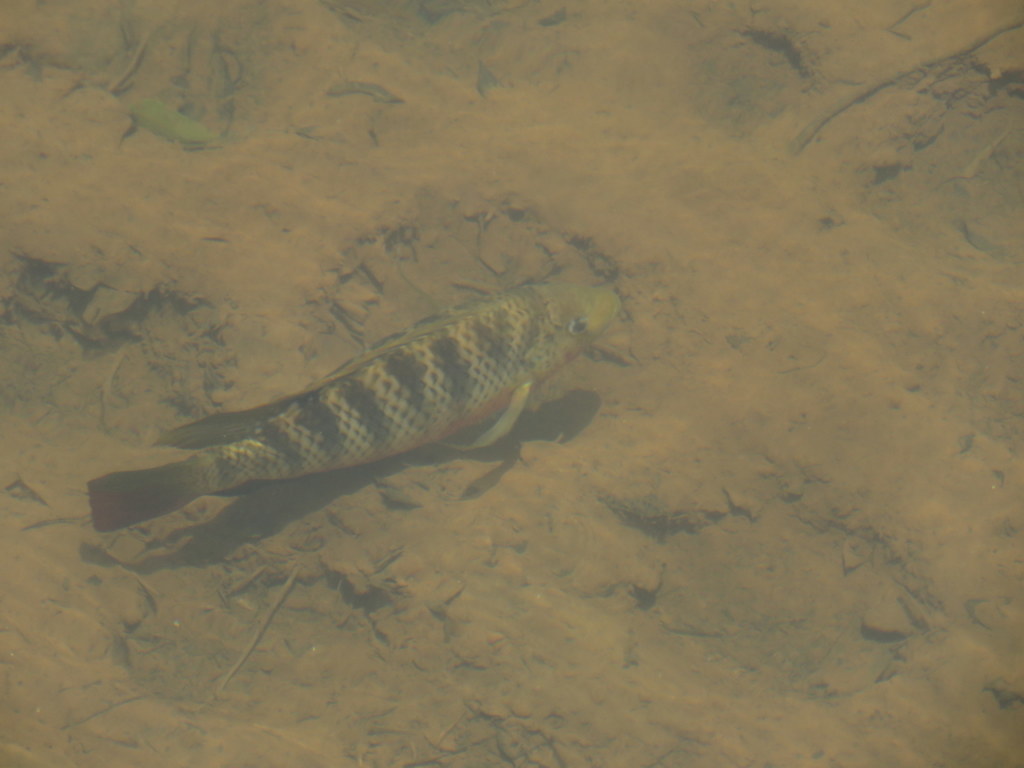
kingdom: Animalia
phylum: Chordata
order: Perciformes
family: Cichlidae
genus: Coptodon
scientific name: Coptodon rendalli
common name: Redbreast tilapia
